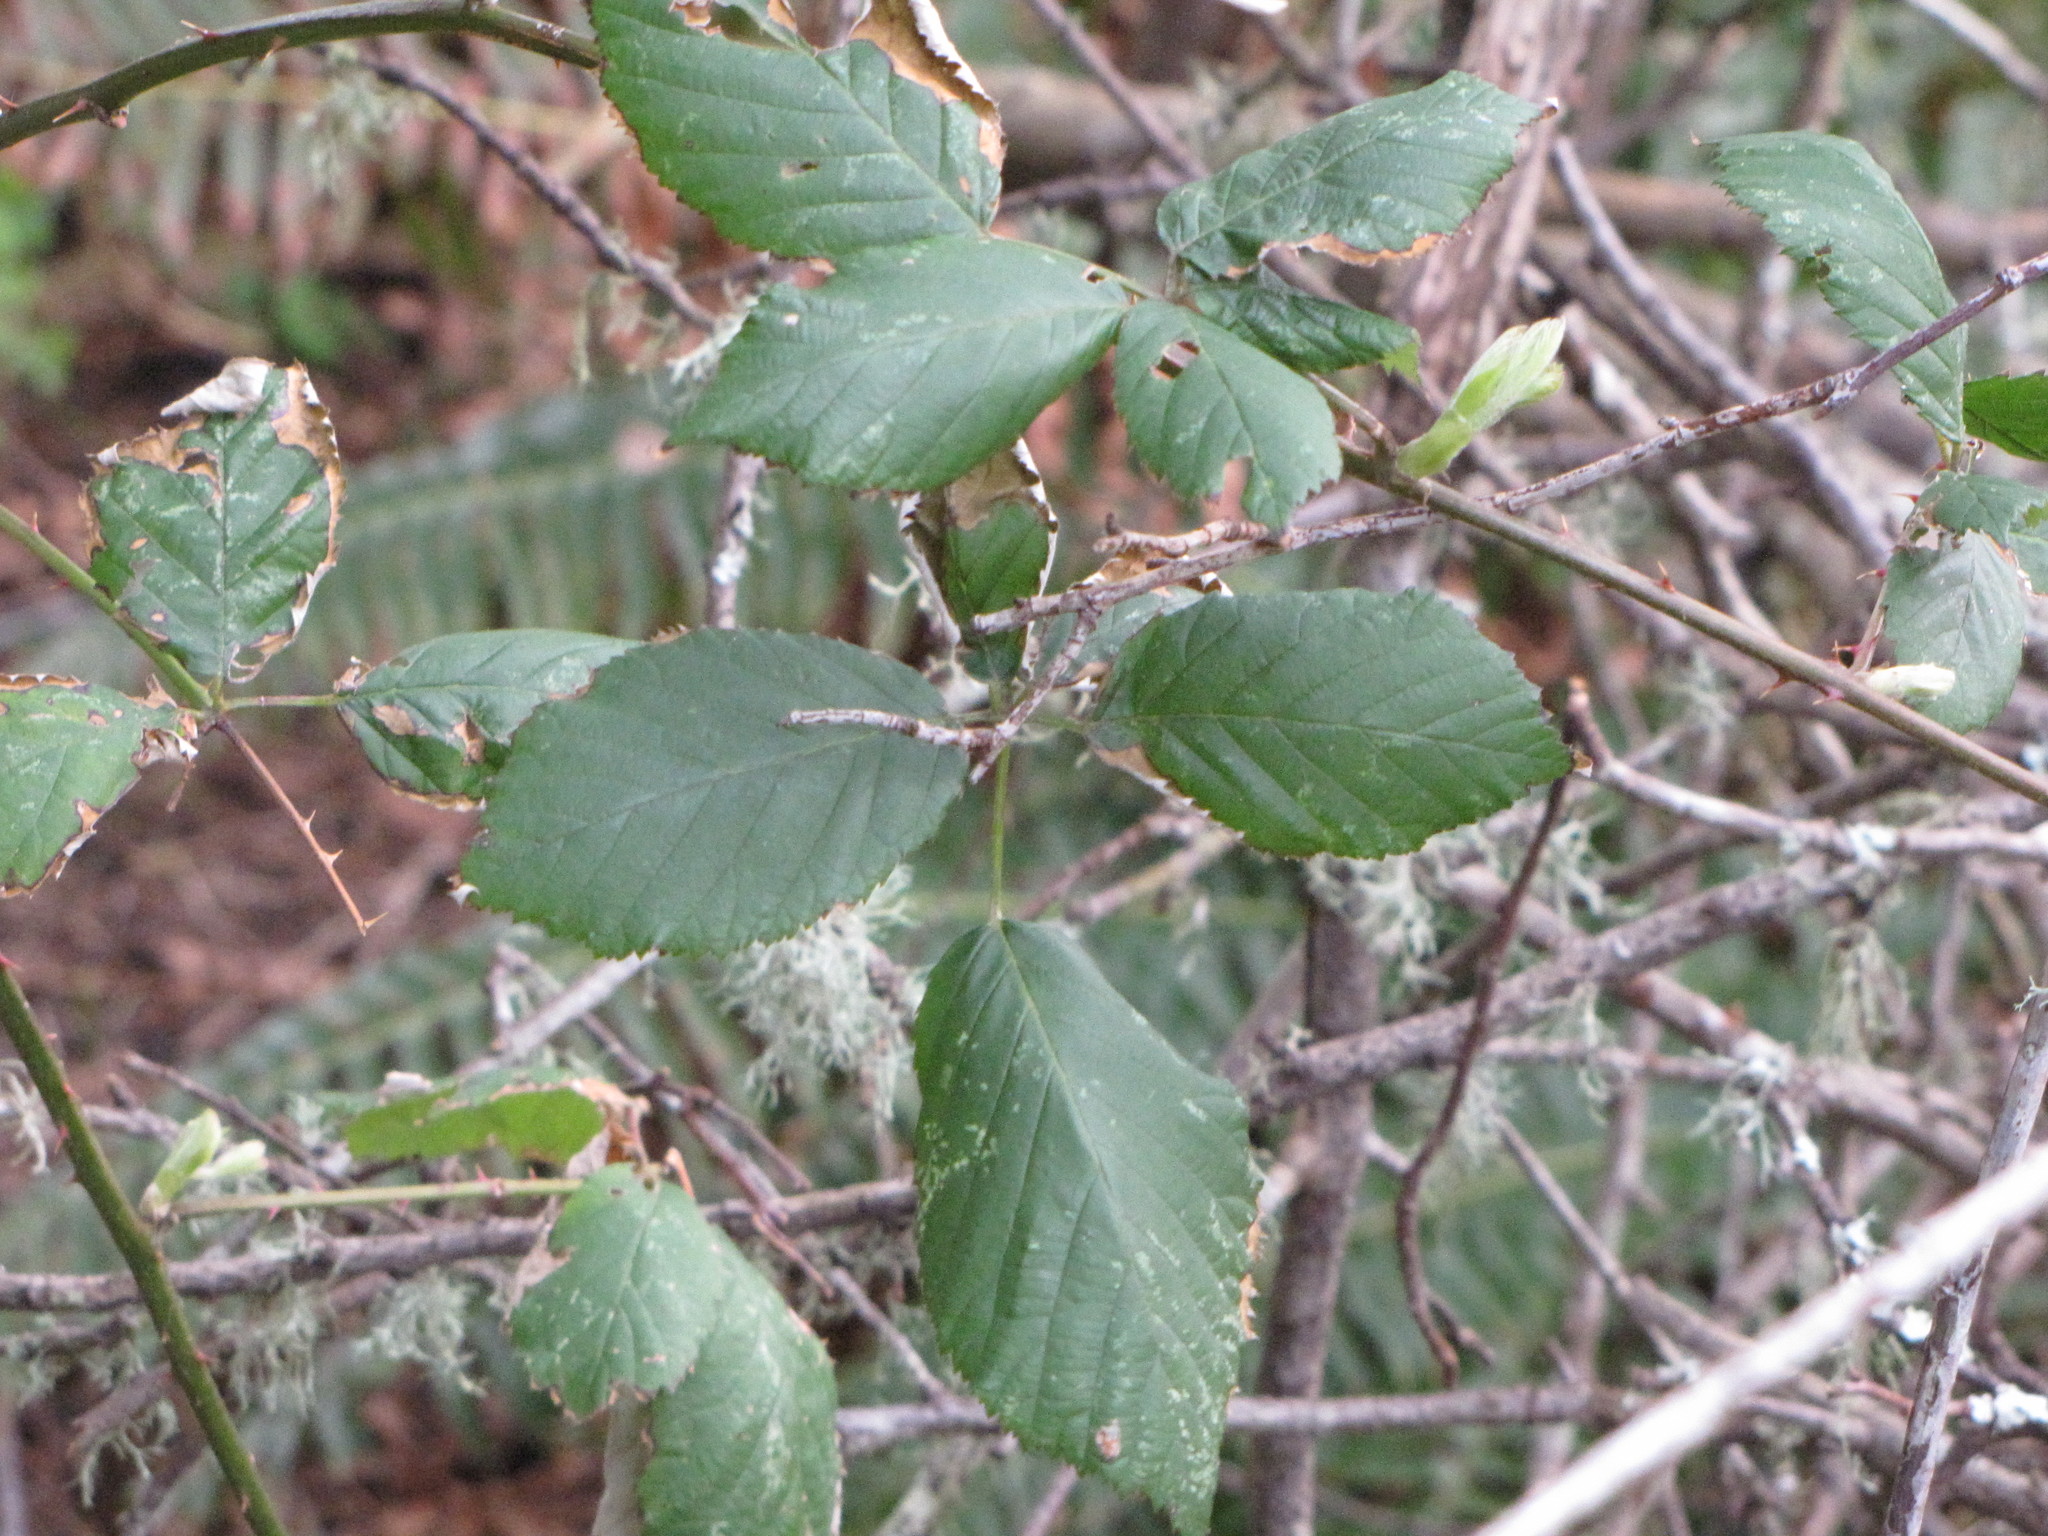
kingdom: Plantae
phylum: Tracheophyta
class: Magnoliopsida
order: Rosales
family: Rosaceae
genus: Rubus
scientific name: Rubus armeniacus
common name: Himalayan blackberry
